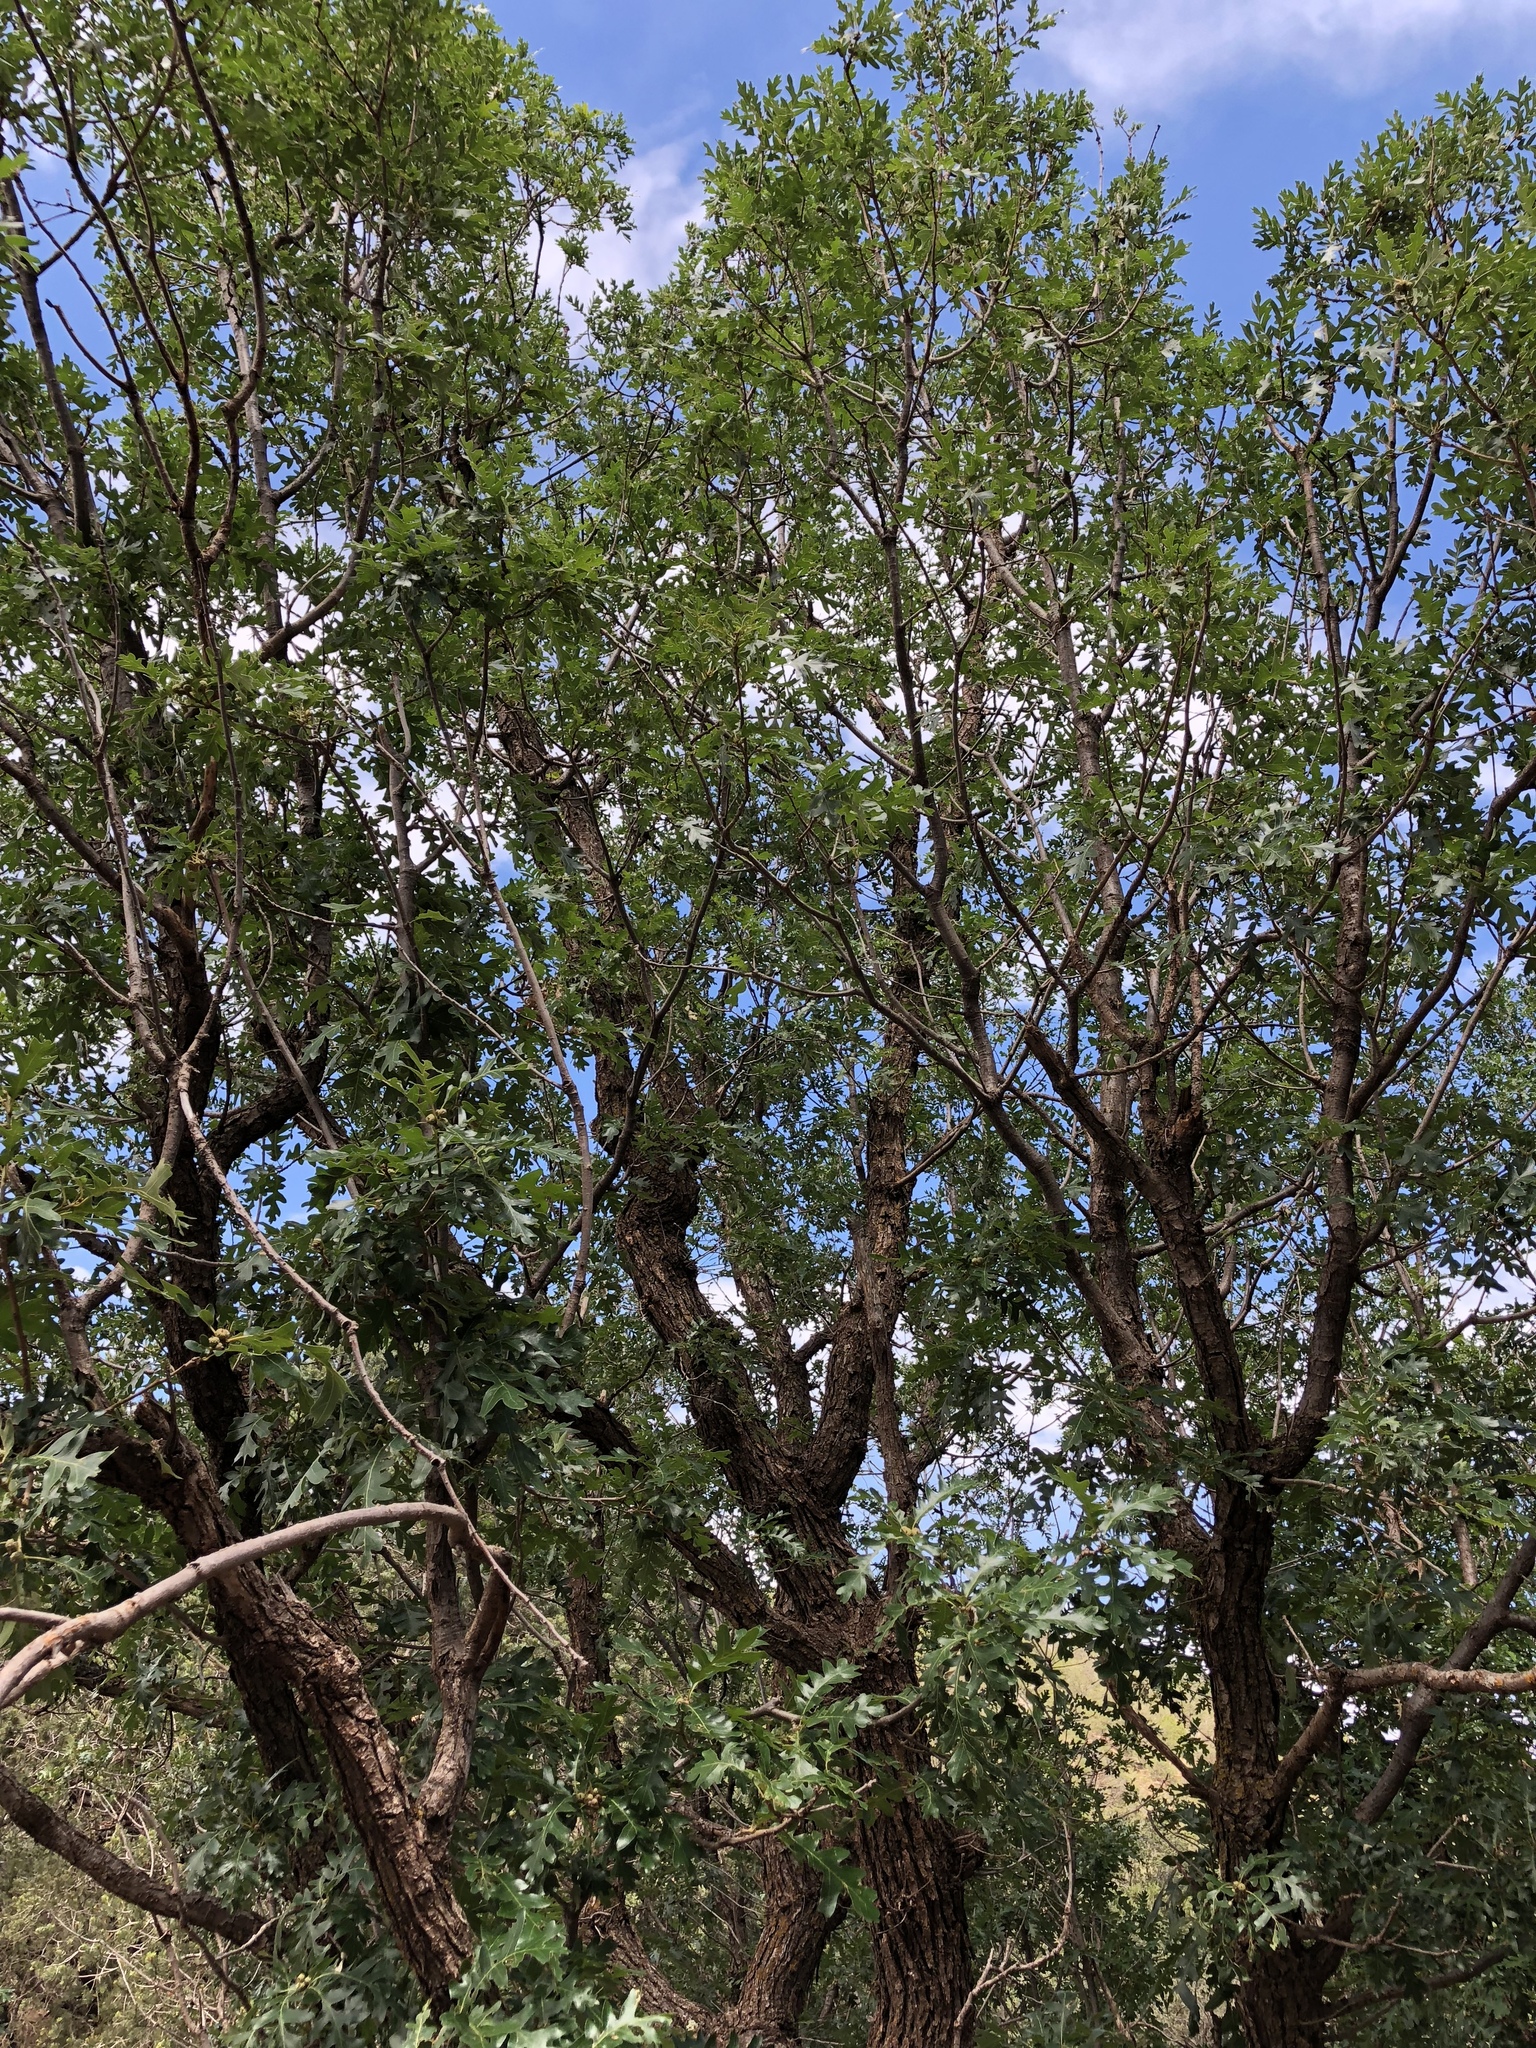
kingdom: Plantae
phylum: Tracheophyta
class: Magnoliopsida
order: Fagales
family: Fagaceae
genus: Quercus
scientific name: Quercus gambelii
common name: Gambel oak
